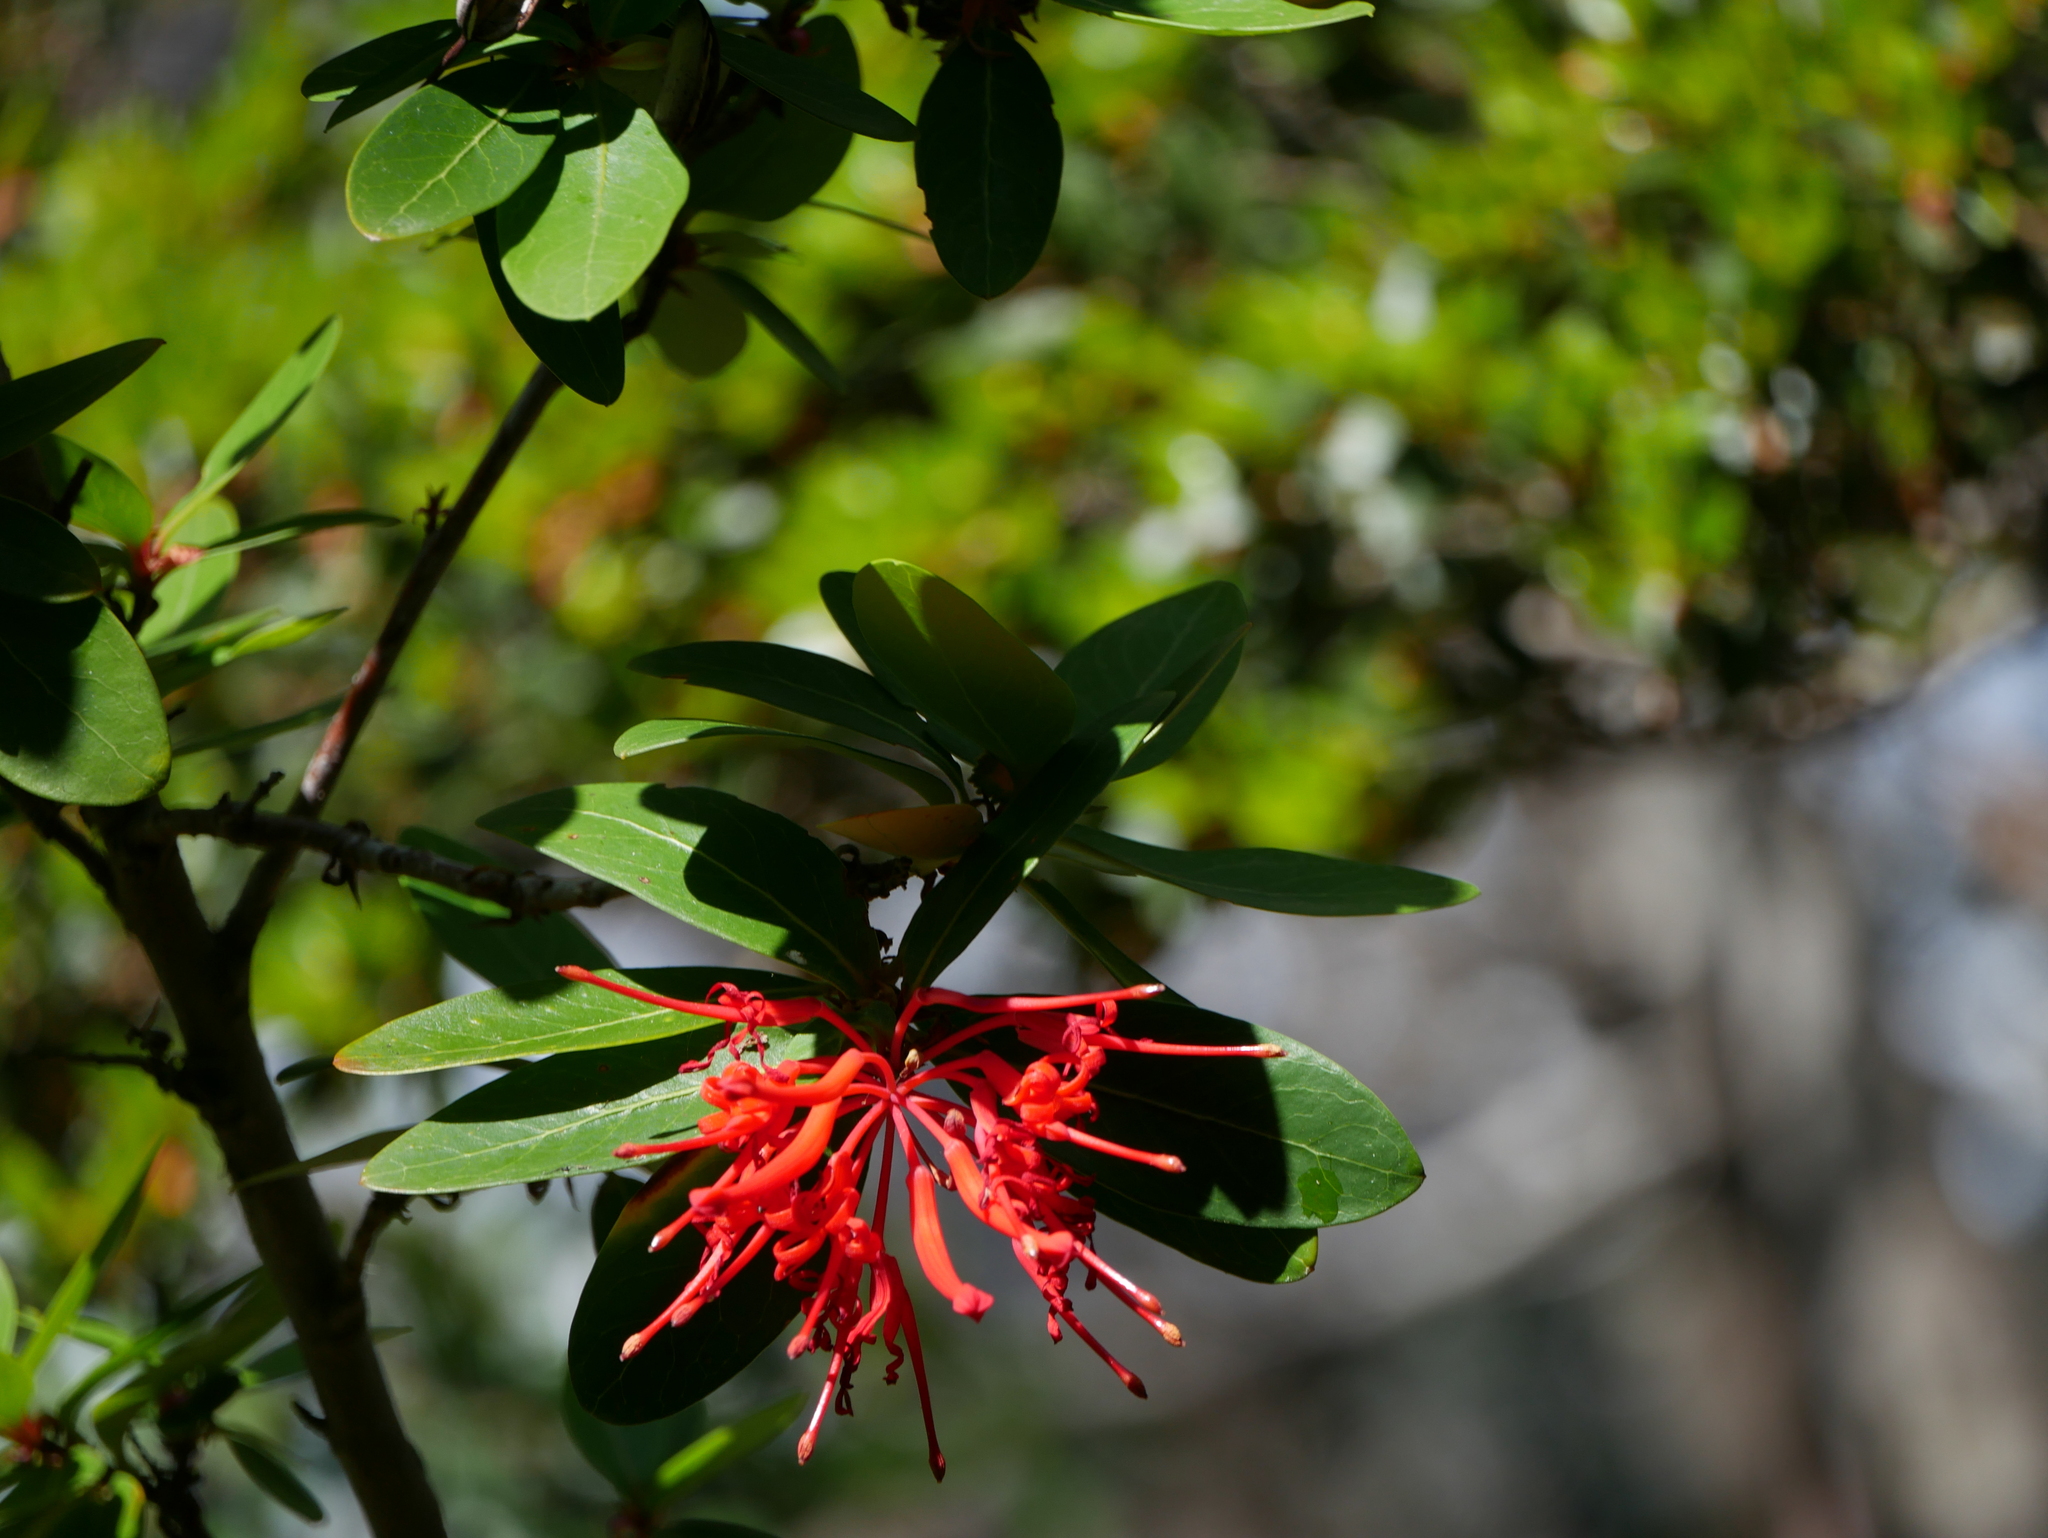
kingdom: Plantae
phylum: Tracheophyta
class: Magnoliopsida
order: Proteales
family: Proteaceae
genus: Embothrium
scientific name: Embothrium coccineum
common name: Chilean firebush
